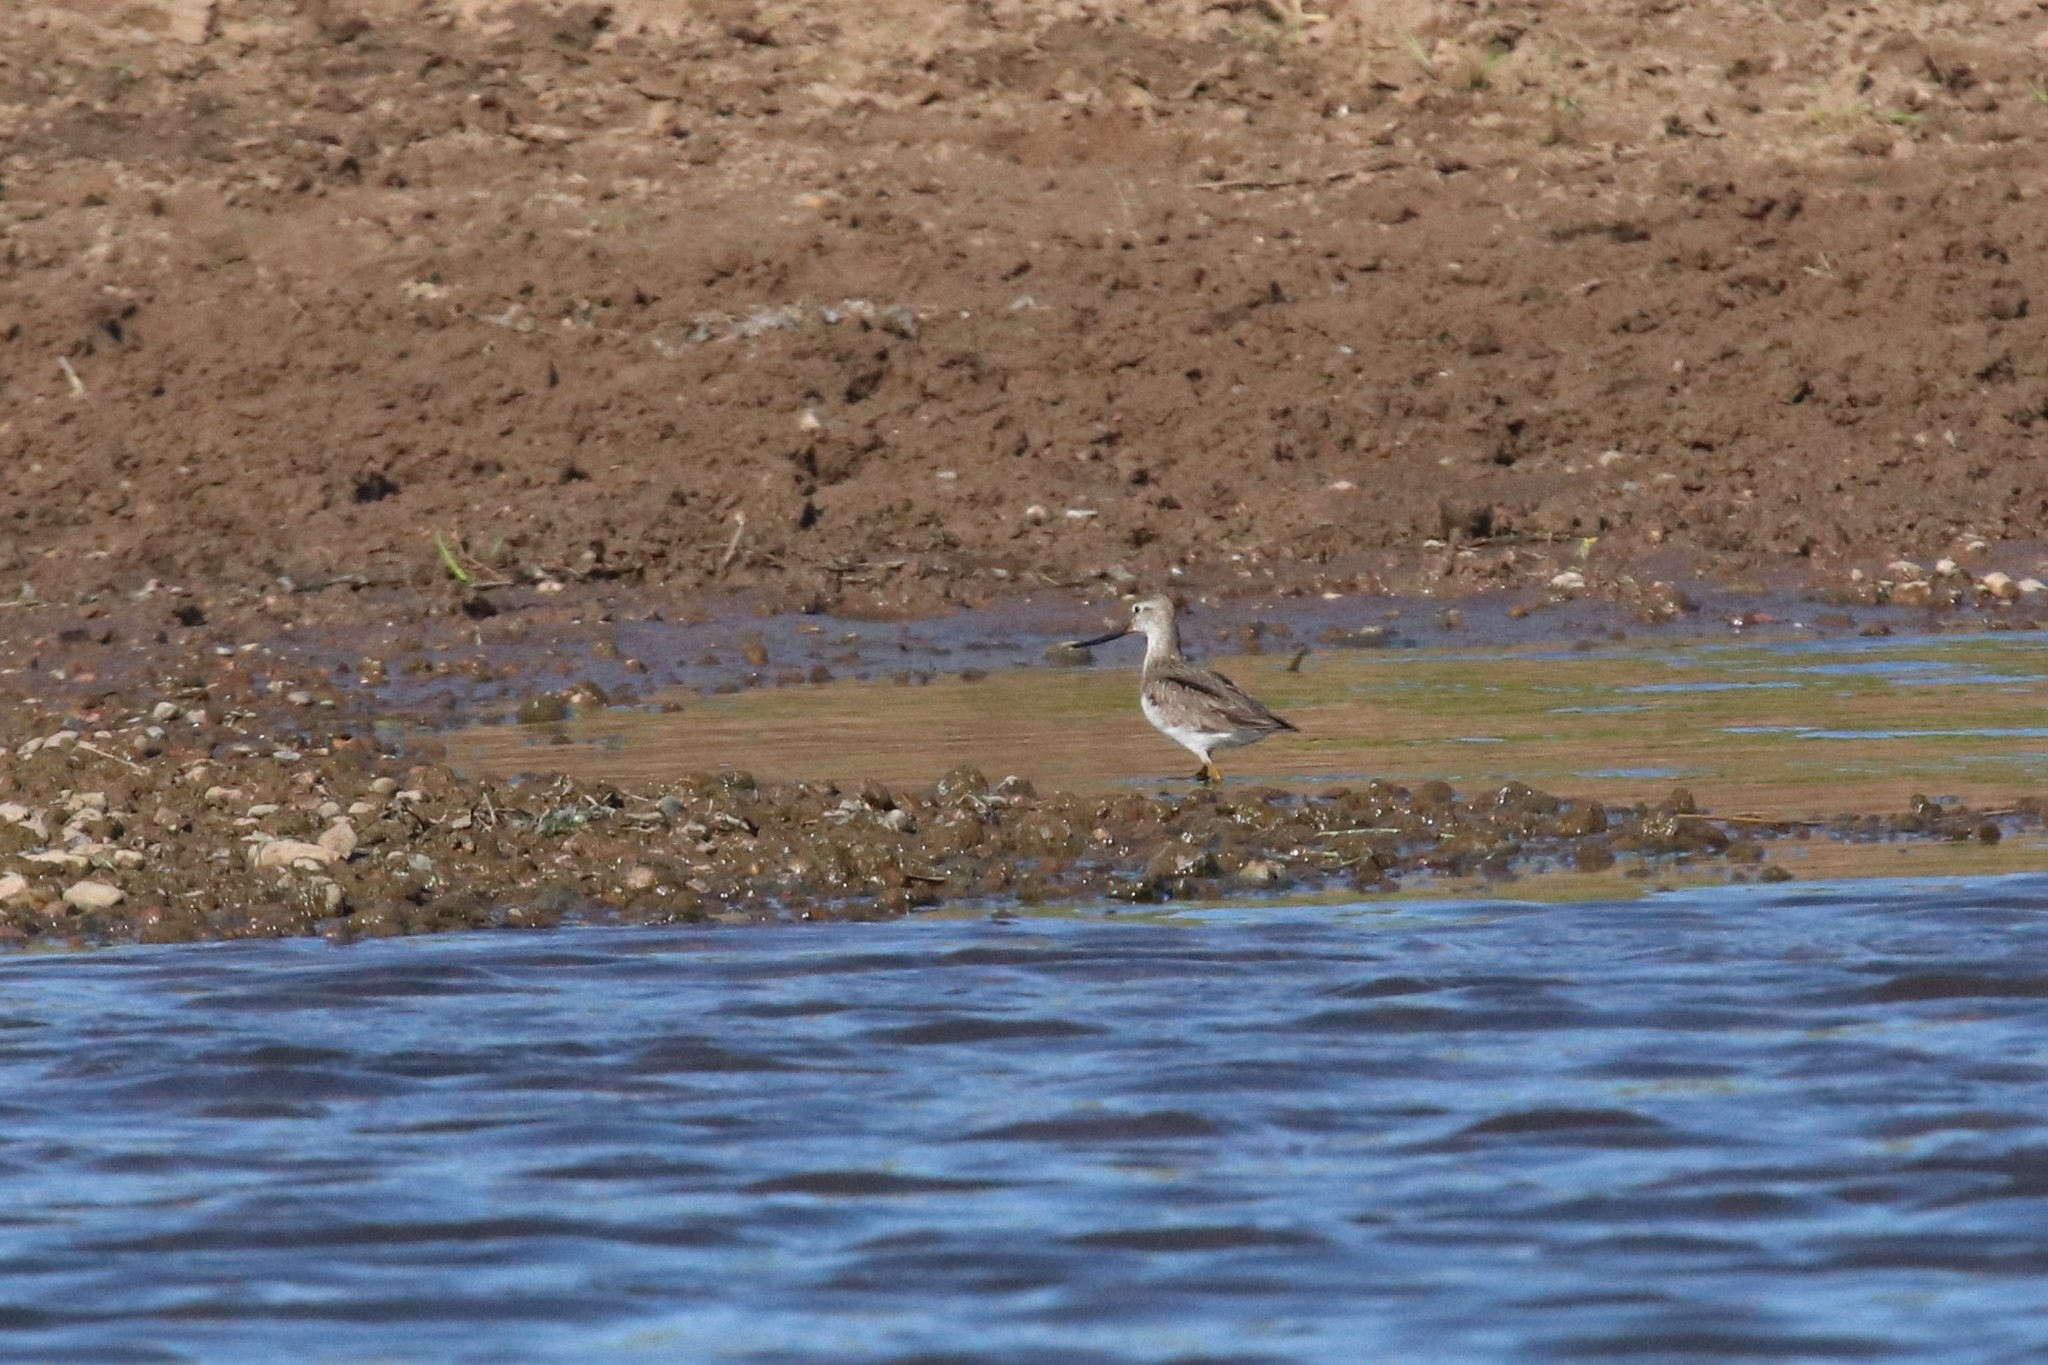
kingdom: Animalia
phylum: Chordata
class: Aves
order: Charadriiformes
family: Scolopacidae
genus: Xenus
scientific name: Xenus cinereus
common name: Terek sandpiper
